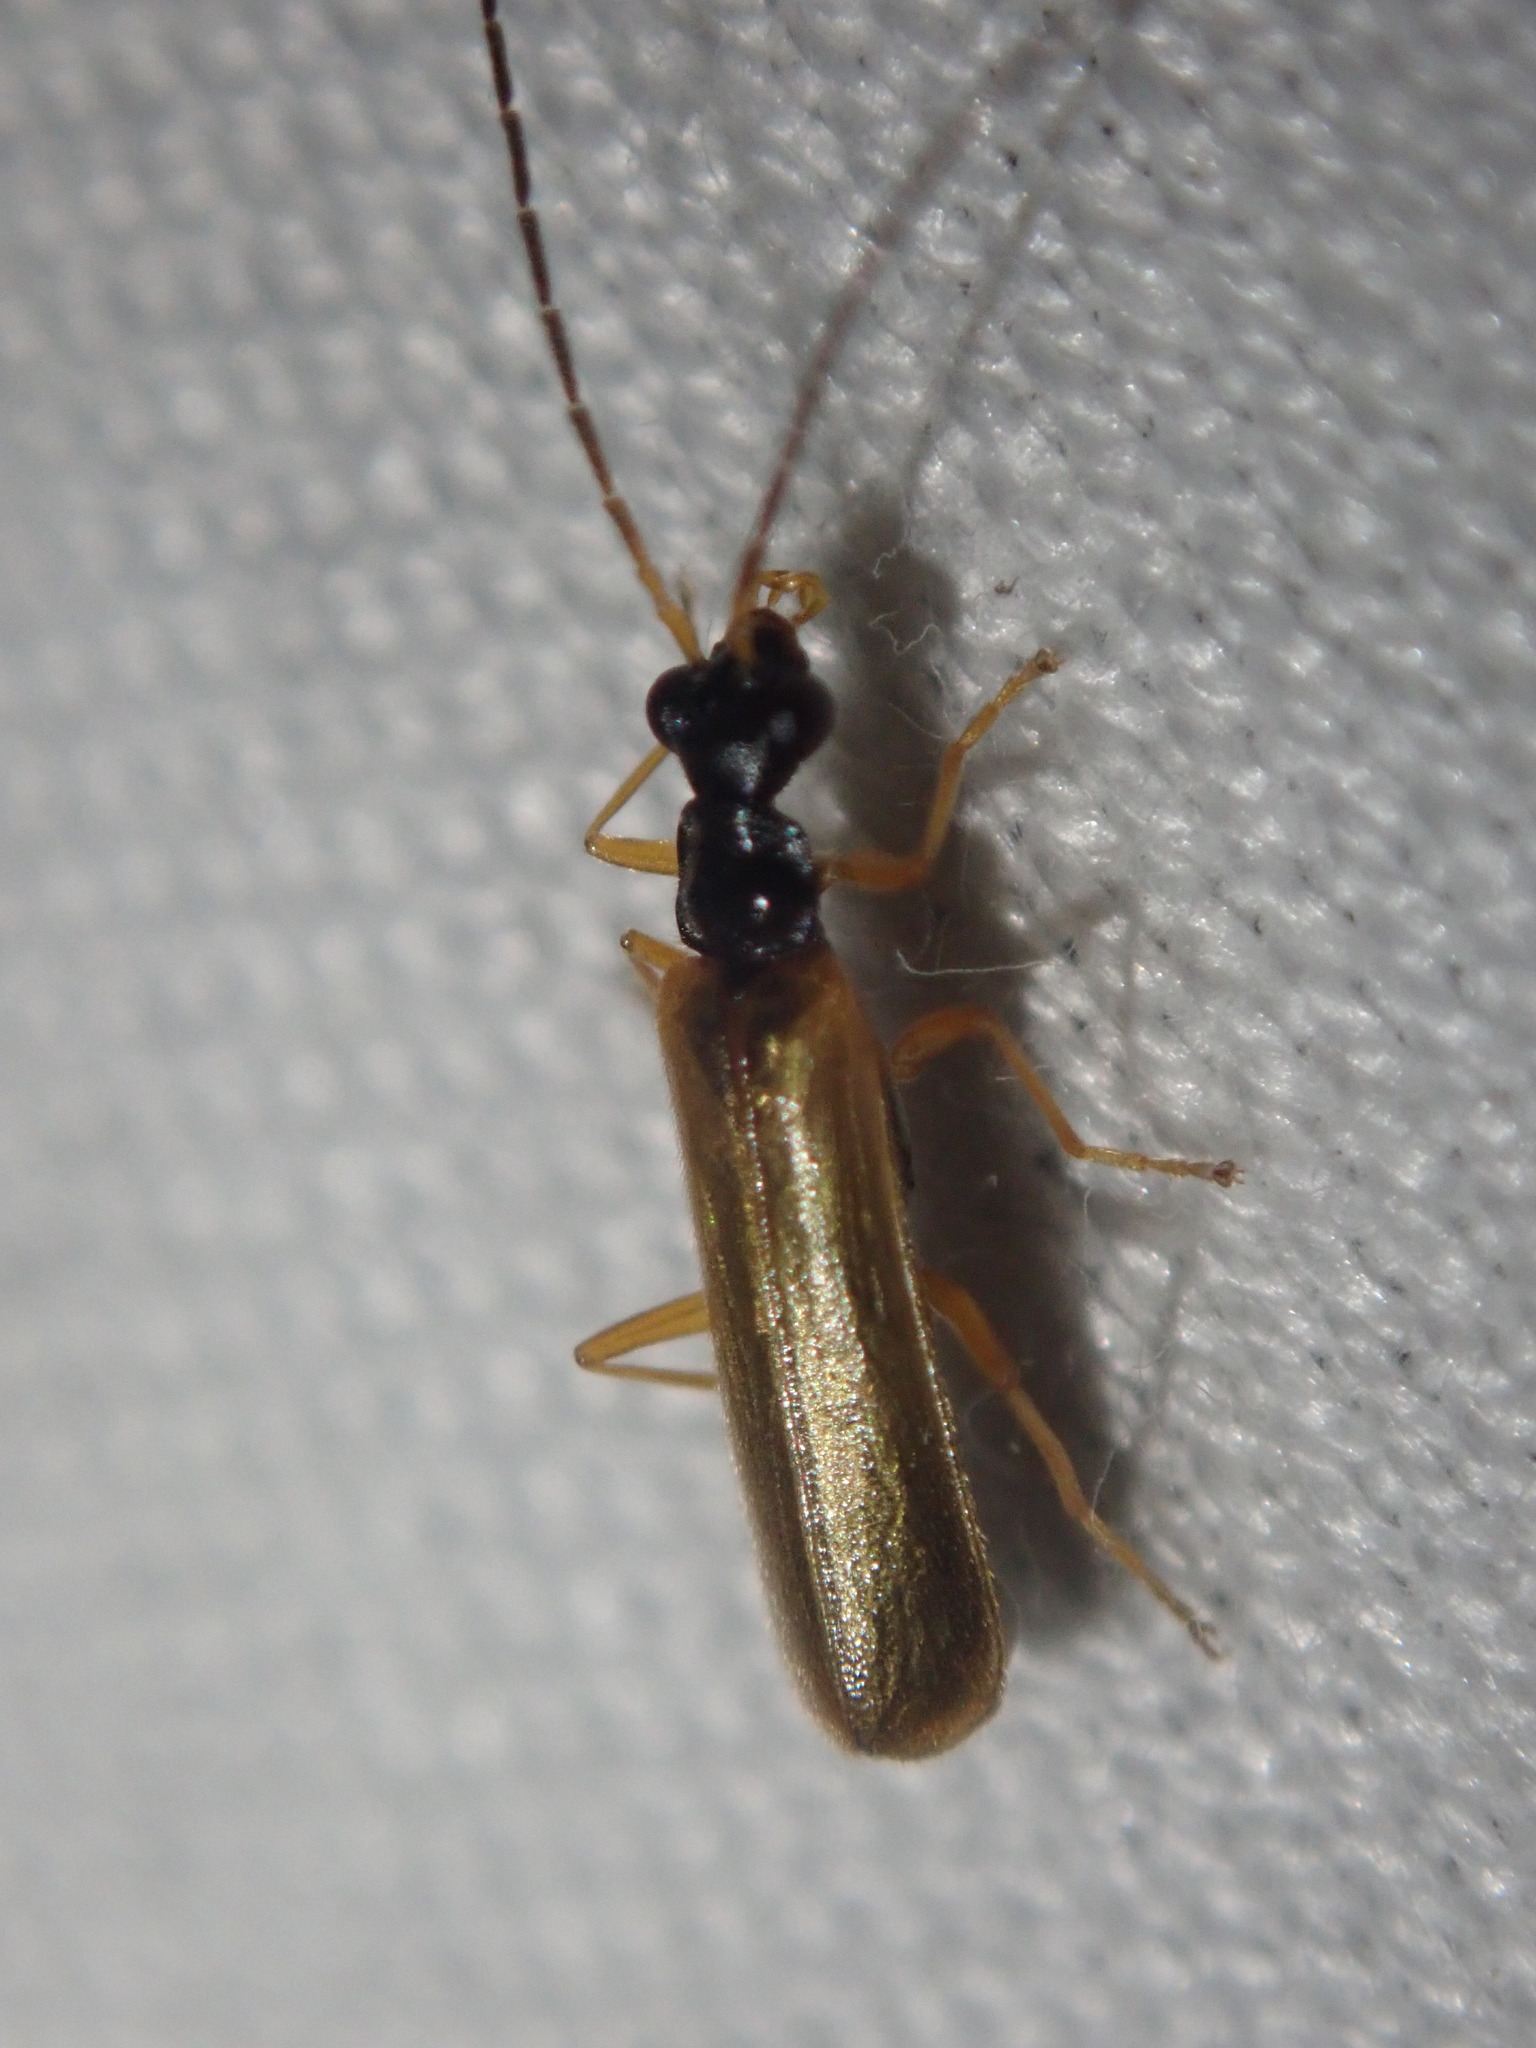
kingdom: Animalia
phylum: Arthropoda
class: Insecta
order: Coleoptera
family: Cantharidae
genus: Rhagonycha
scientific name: Rhagonycha lignosa
